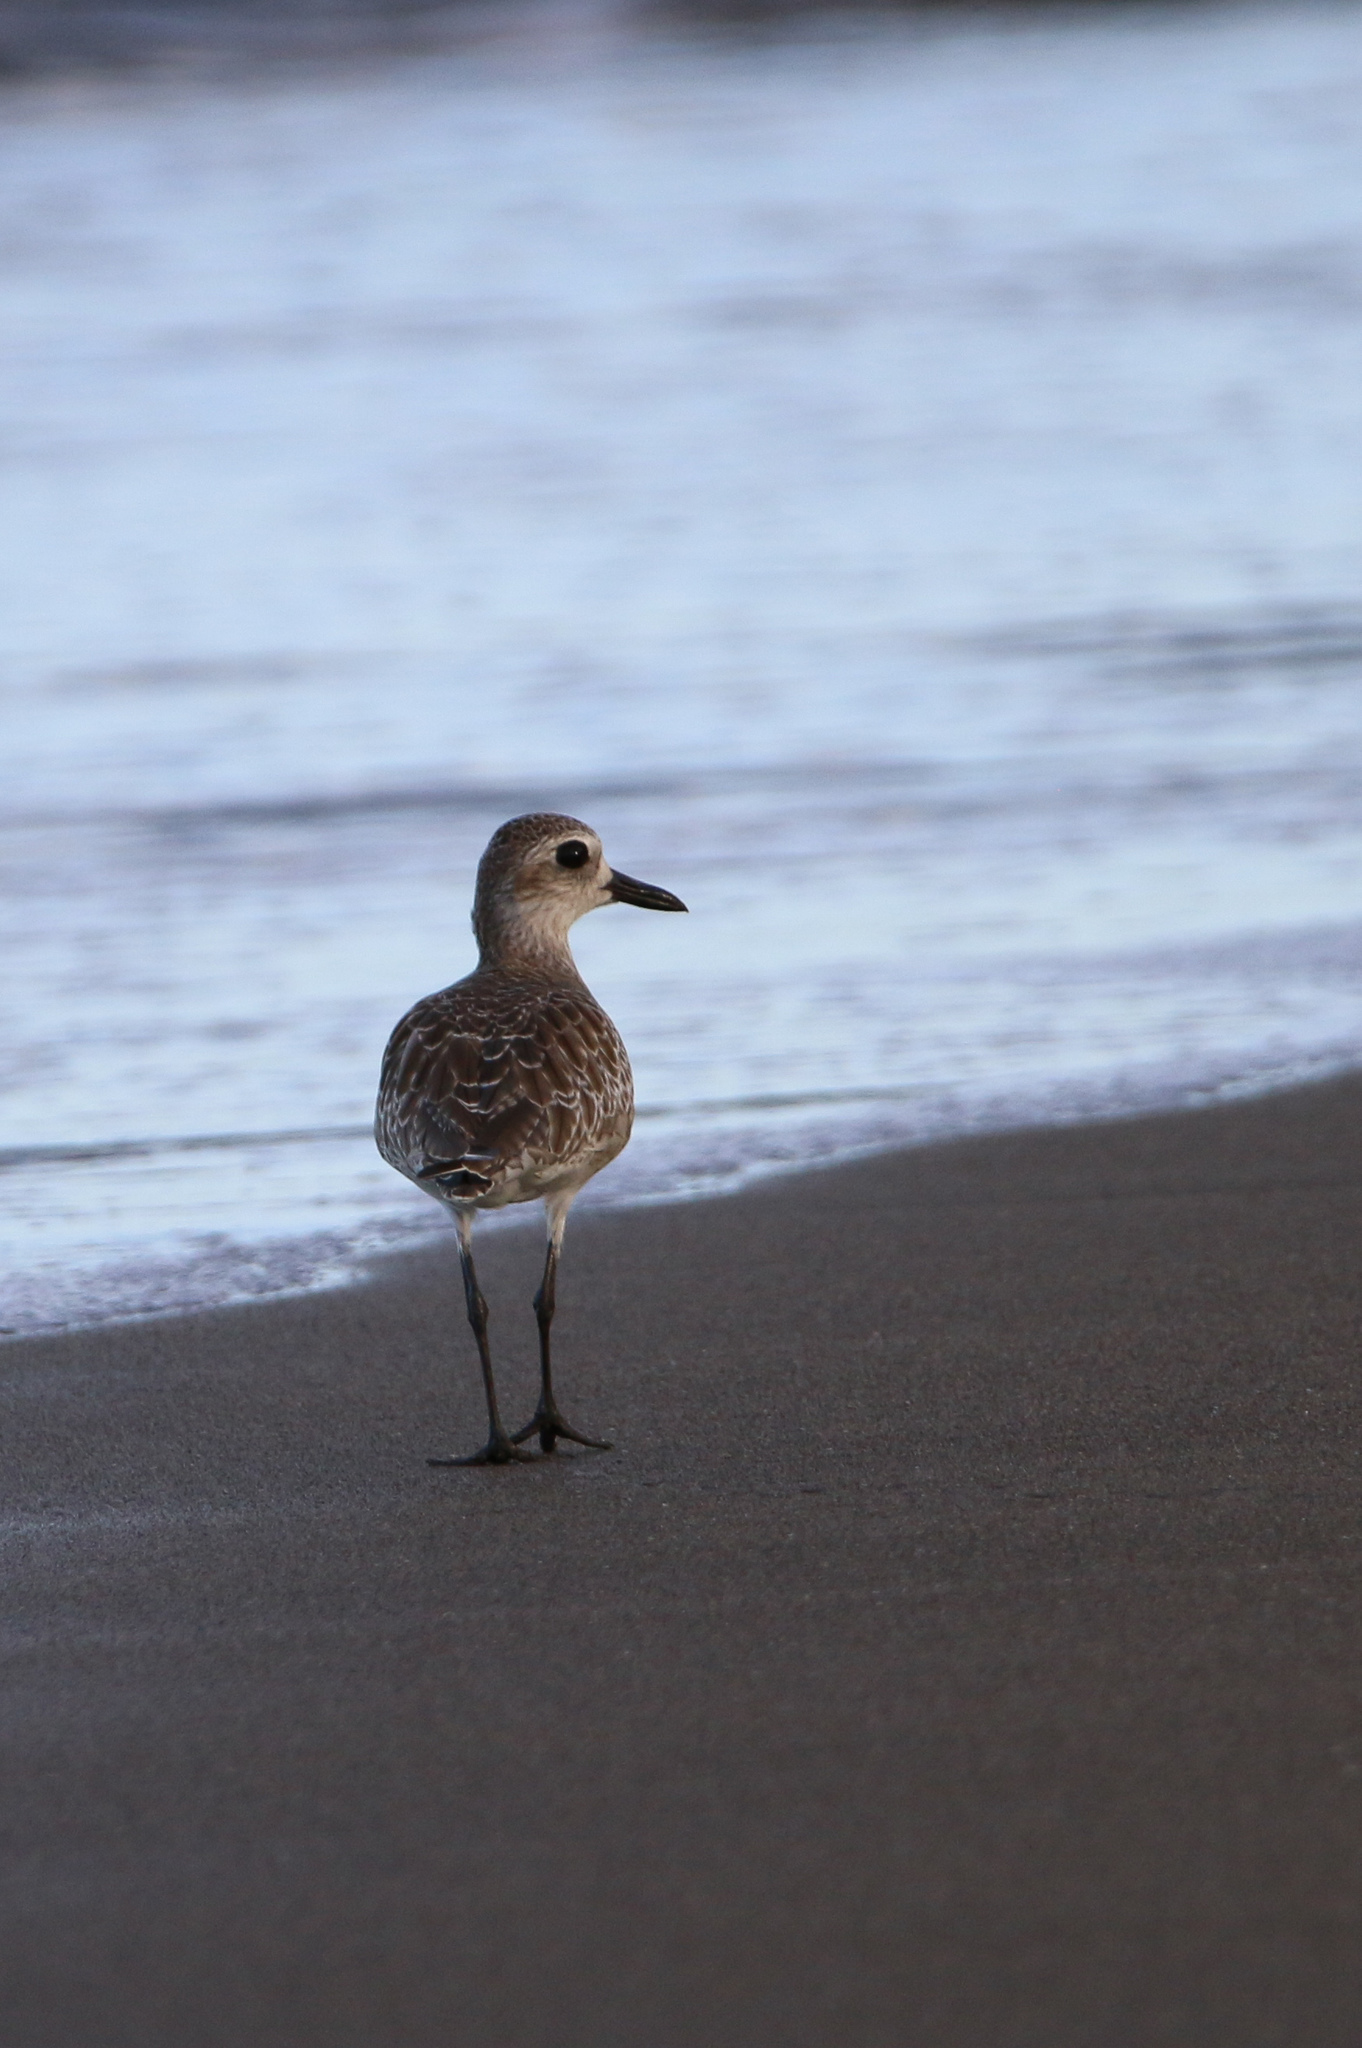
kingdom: Animalia
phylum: Chordata
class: Aves
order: Charadriiformes
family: Charadriidae
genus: Pluvialis
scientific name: Pluvialis squatarola
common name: Grey plover
